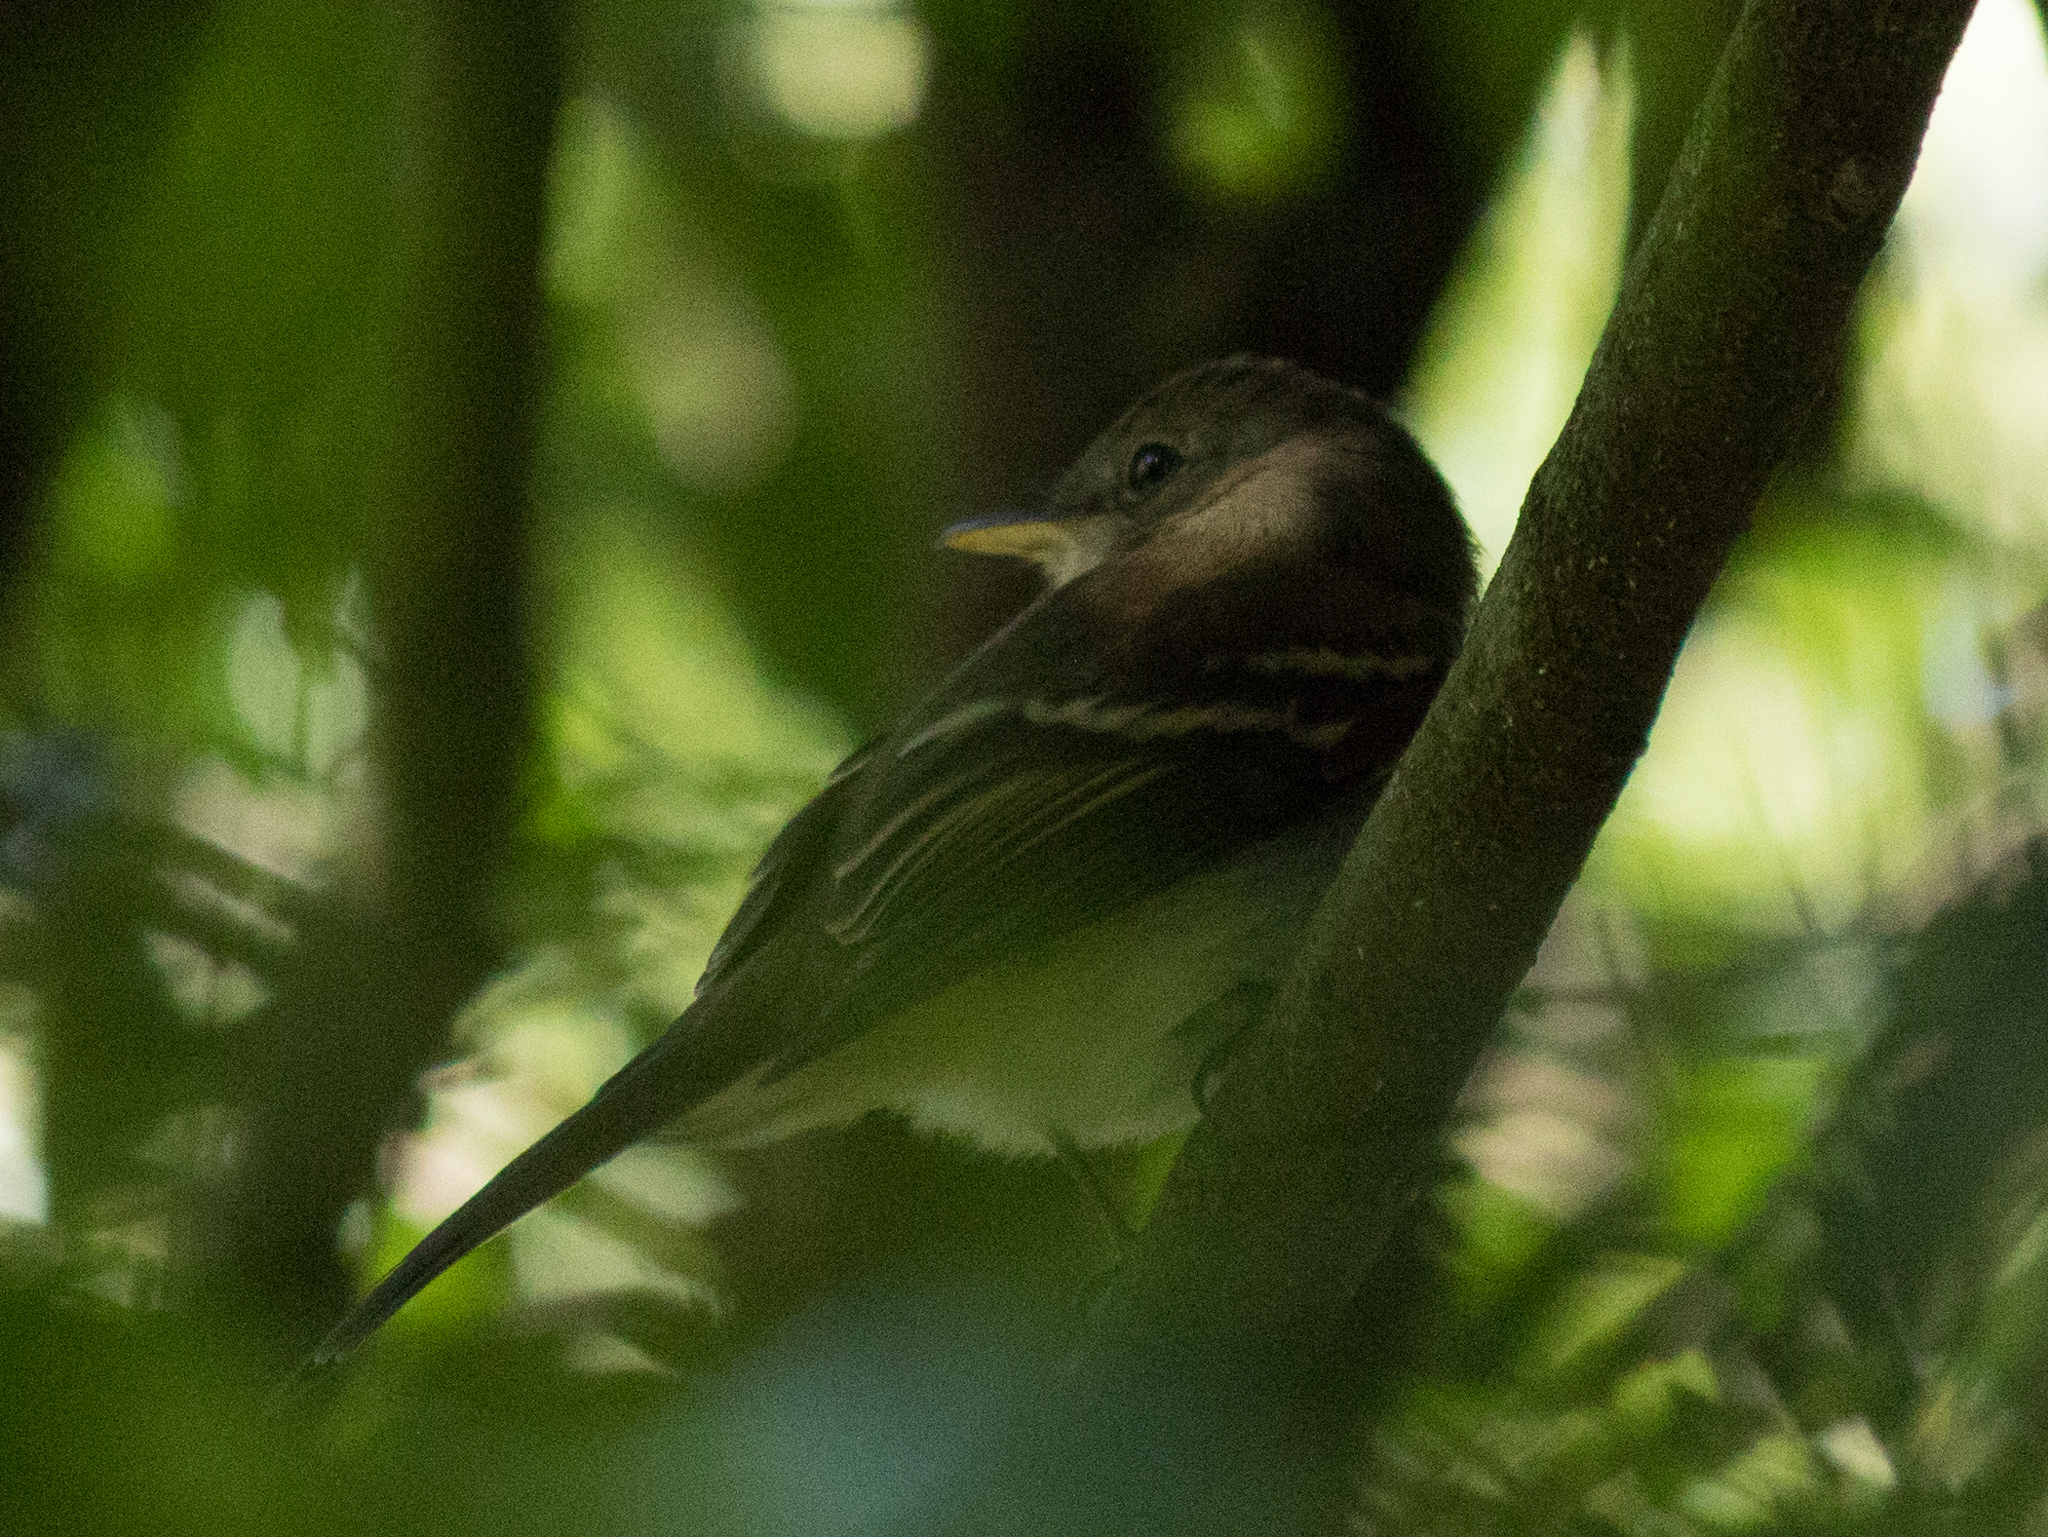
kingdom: Animalia
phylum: Chordata
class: Aves
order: Passeriformes
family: Tyrannidae
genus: Lathrotriccus
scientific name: Lathrotriccus euleri
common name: Euler's flycatcher
